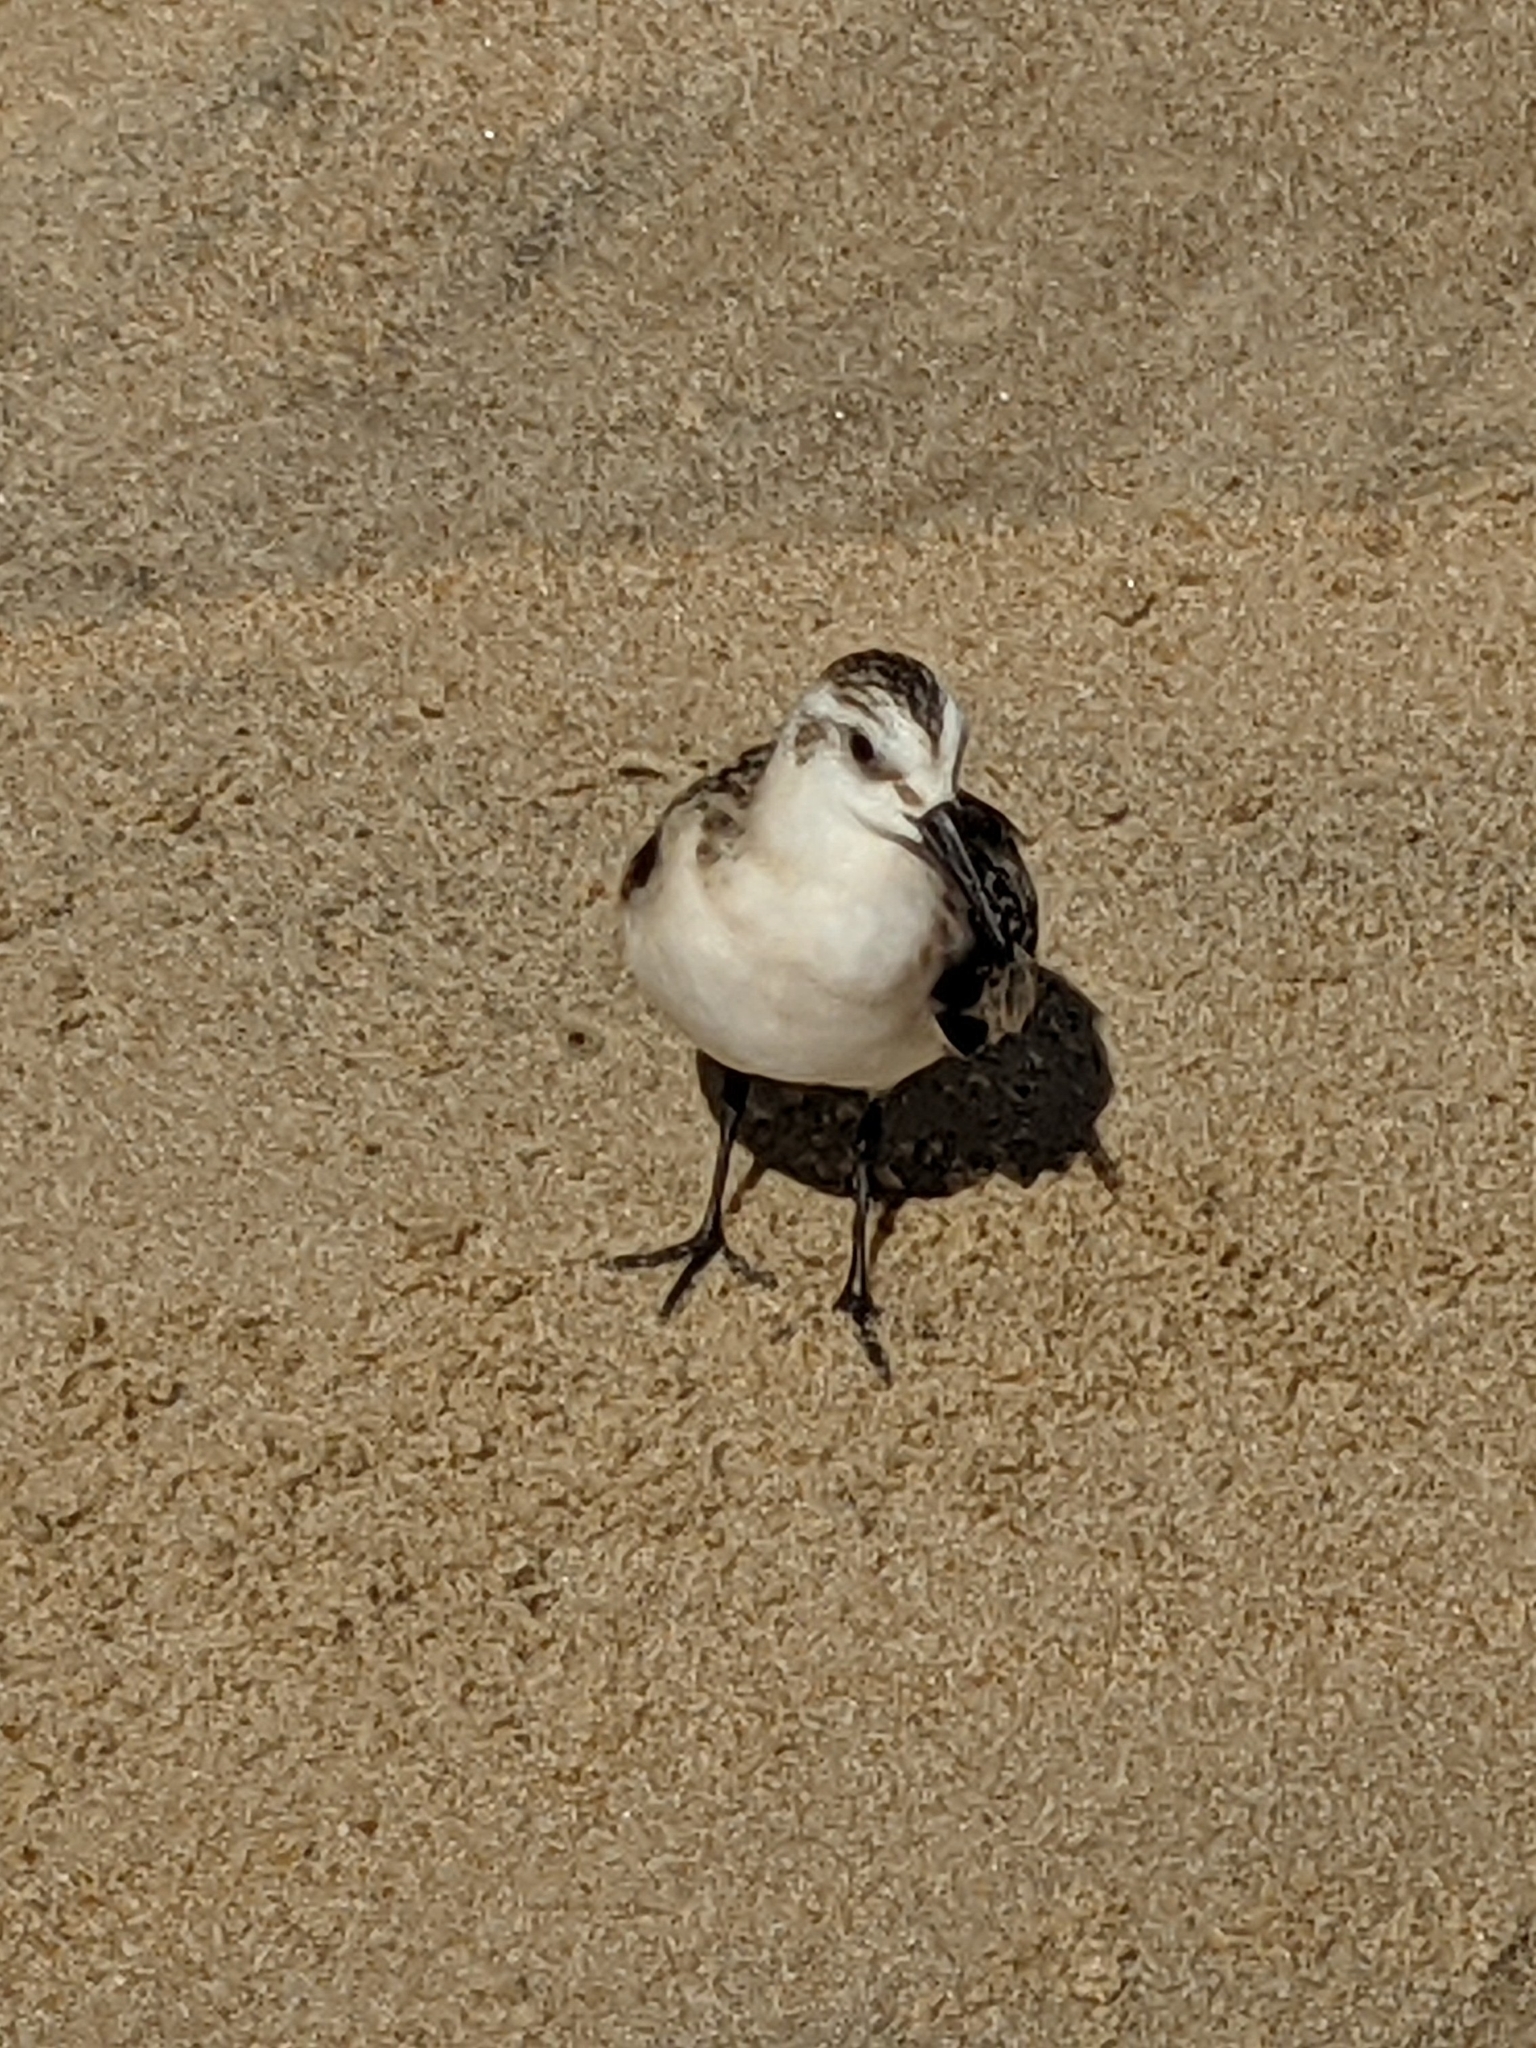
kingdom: Animalia
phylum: Chordata
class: Aves
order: Charadriiformes
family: Scolopacidae
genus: Calidris
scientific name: Calidris alba
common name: Sanderling
